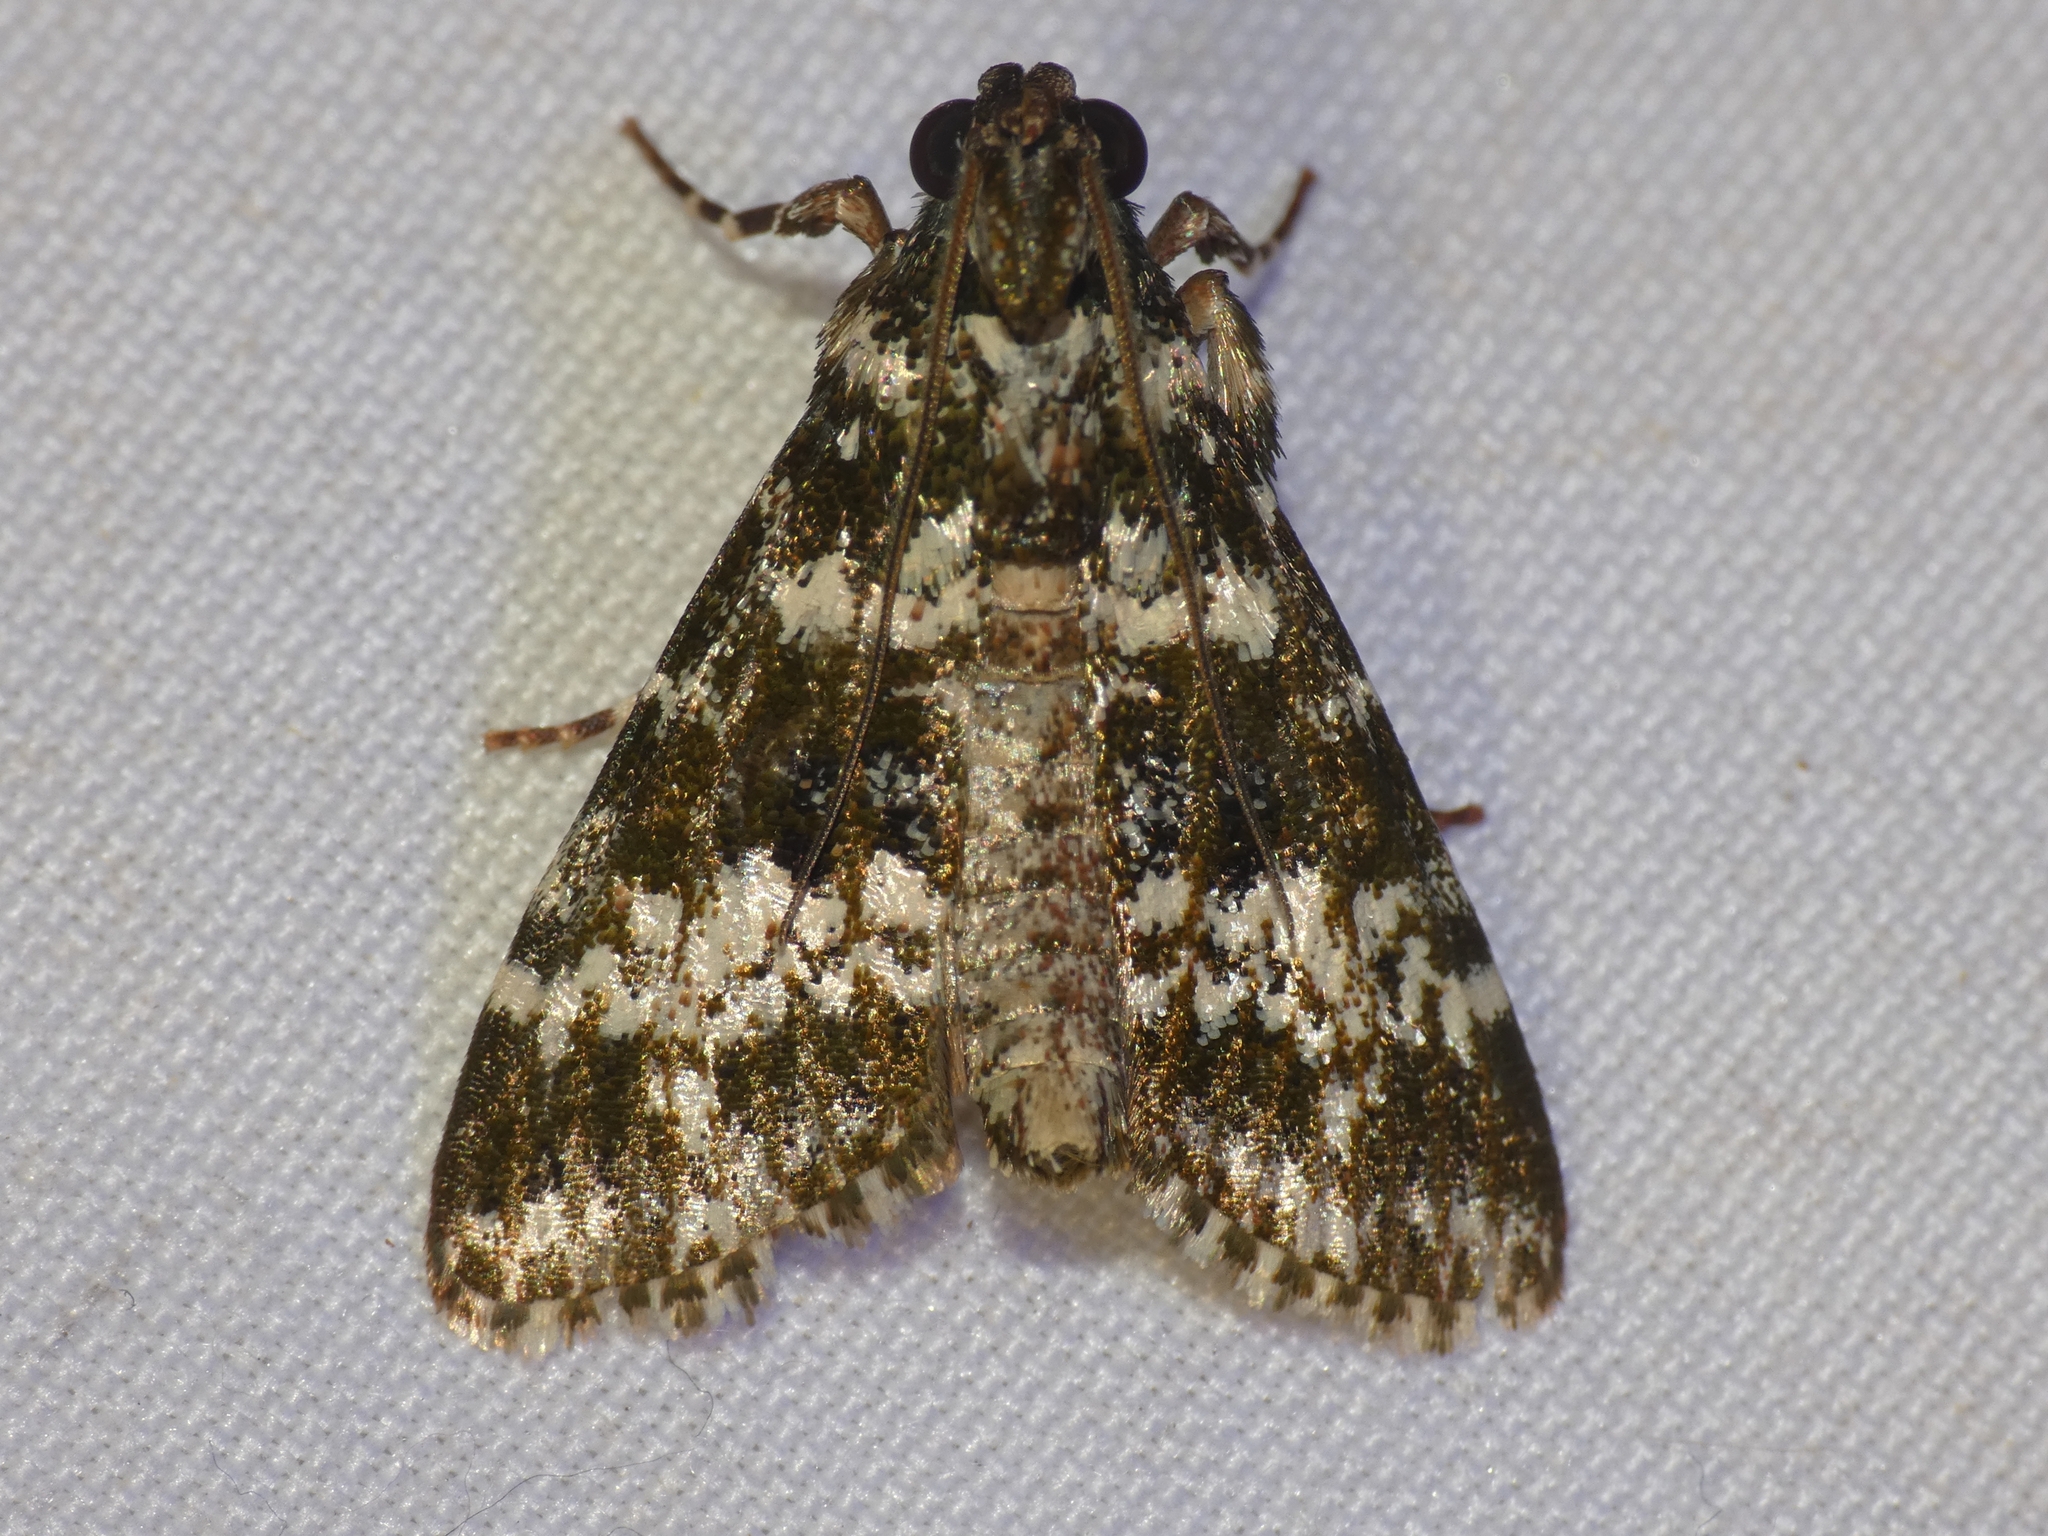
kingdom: Animalia
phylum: Arthropoda
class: Insecta
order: Lepidoptera
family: Pyralidae
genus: Lacalma
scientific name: Lacalma albirufalis
